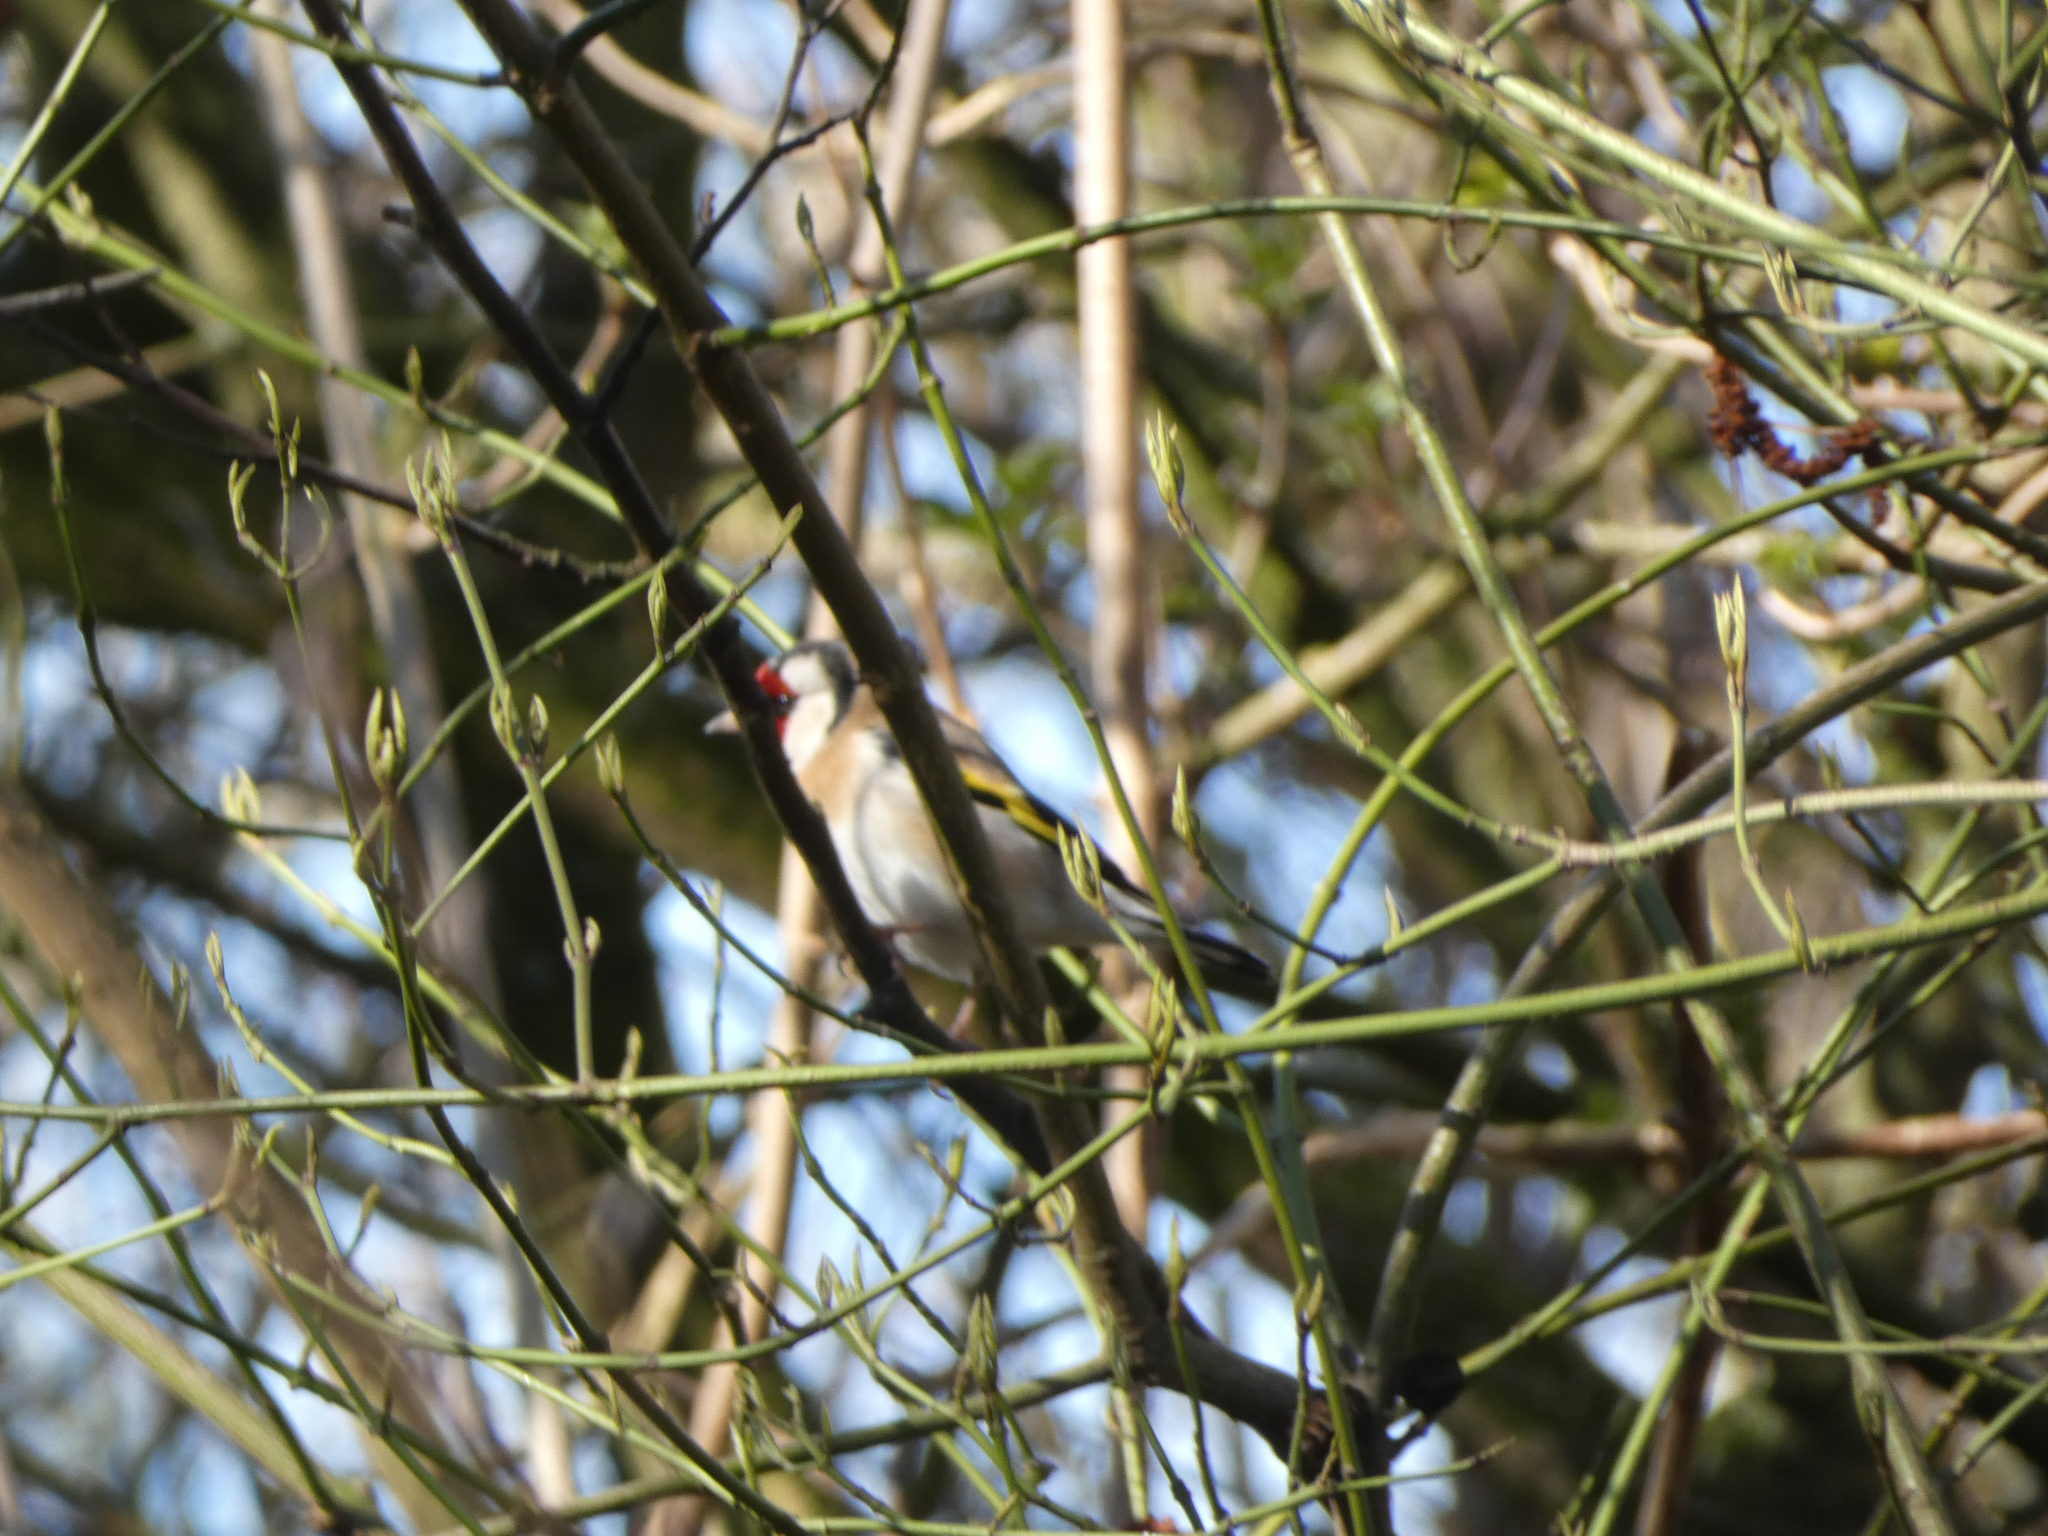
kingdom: Animalia
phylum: Chordata
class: Aves
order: Passeriformes
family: Fringillidae
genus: Carduelis
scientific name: Carduelis carduelis
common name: European goldfinch
